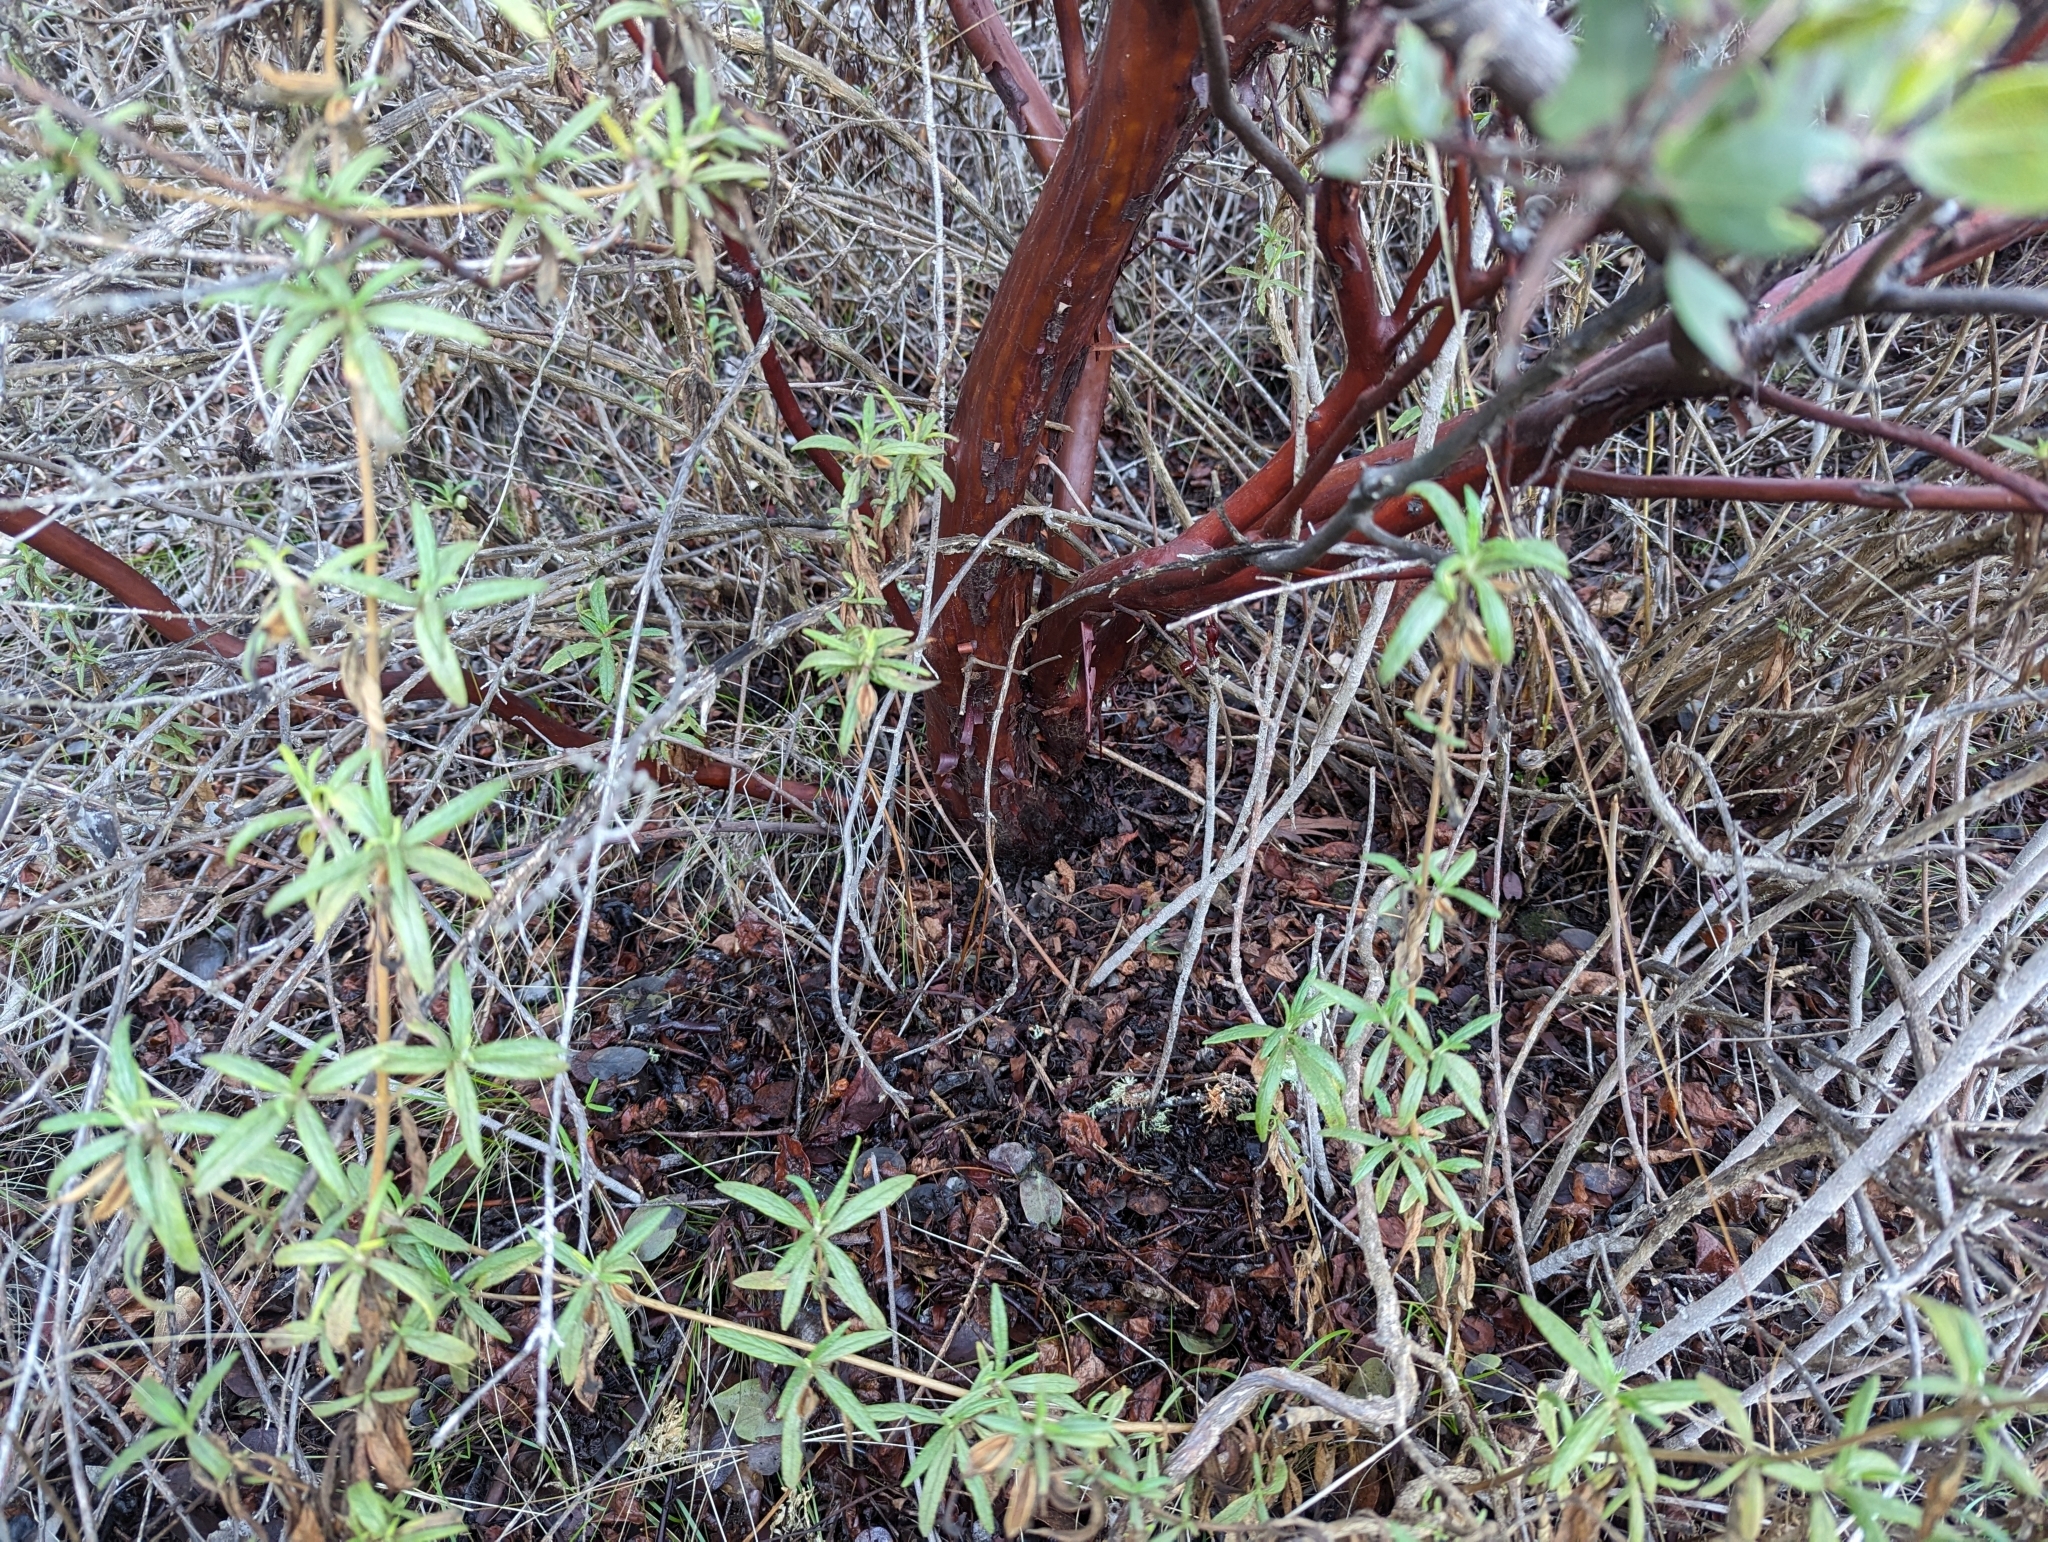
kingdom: Plantae
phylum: Tracheophyta
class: Magnoliopsida
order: Ericales
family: Ericaceae
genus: Arctostaphylos
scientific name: Arctostaphylos manzanita
